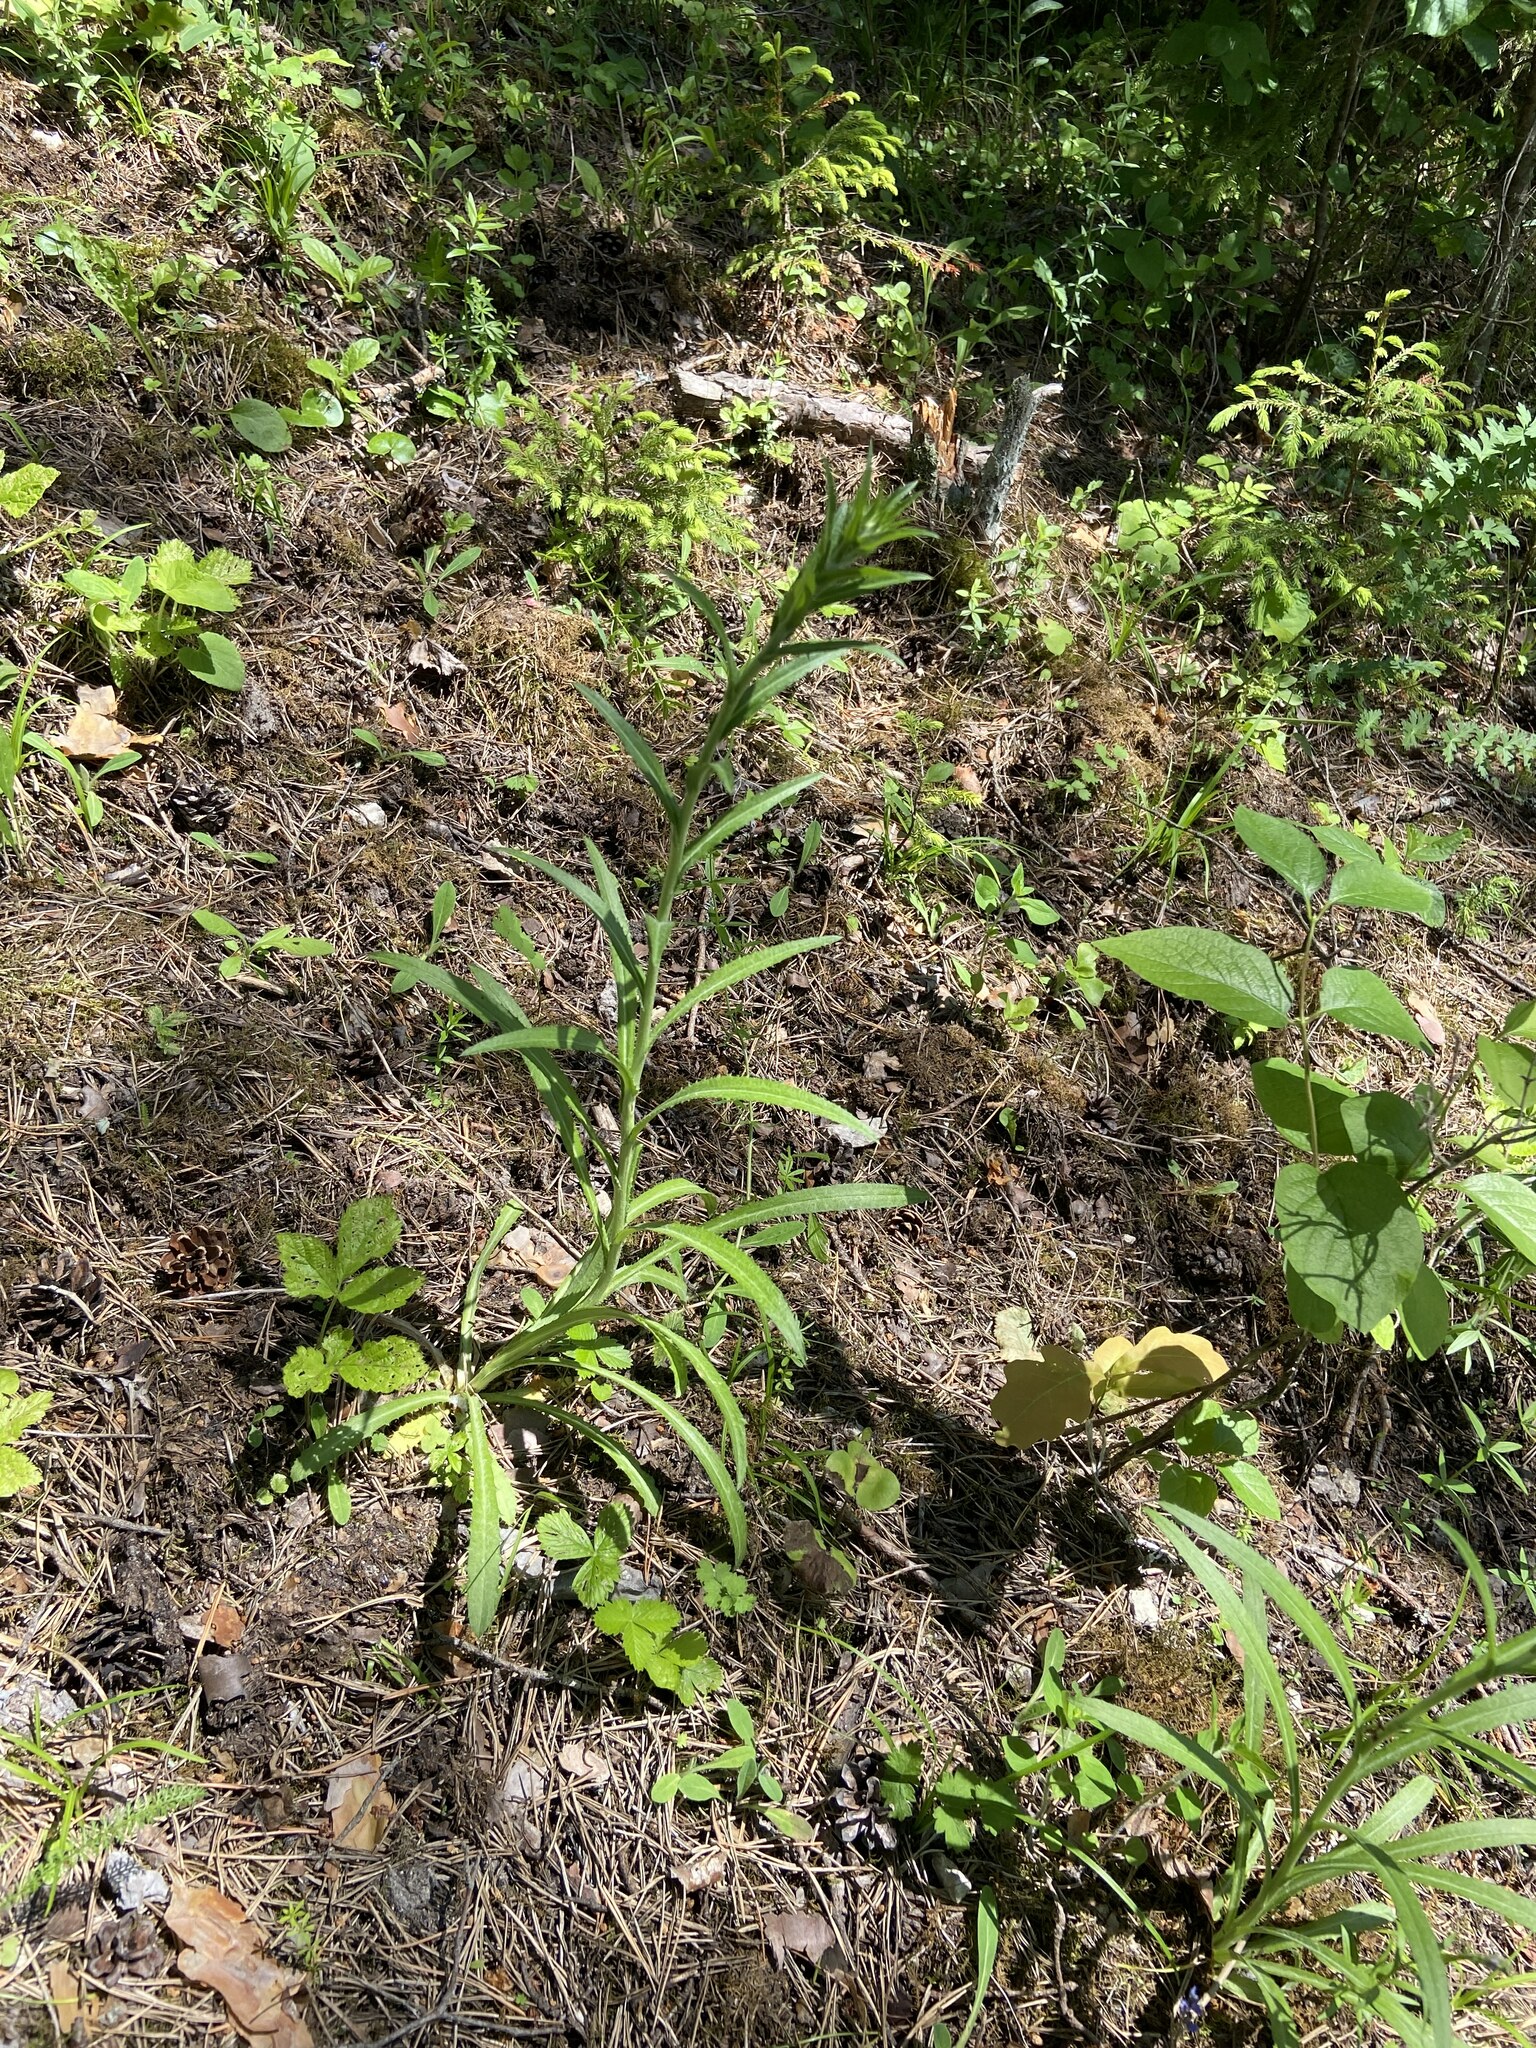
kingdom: Plantae
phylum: Tracheophyta
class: Magnoliopsida
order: Asterales
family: Asteraceae
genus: Carlina
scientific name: Carlina biebersteinii
